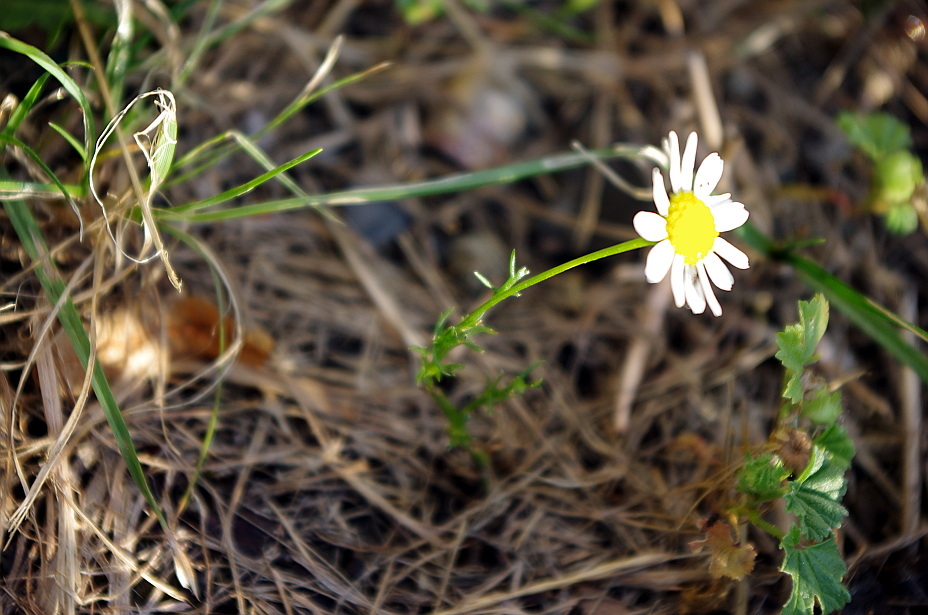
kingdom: Plantae
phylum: Tracheophyta
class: Magnoliopsida
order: Asterales
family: Asteraceae
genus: Tripleurospermum
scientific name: Tripleurospermum inodorum
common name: Scentless mayweed
